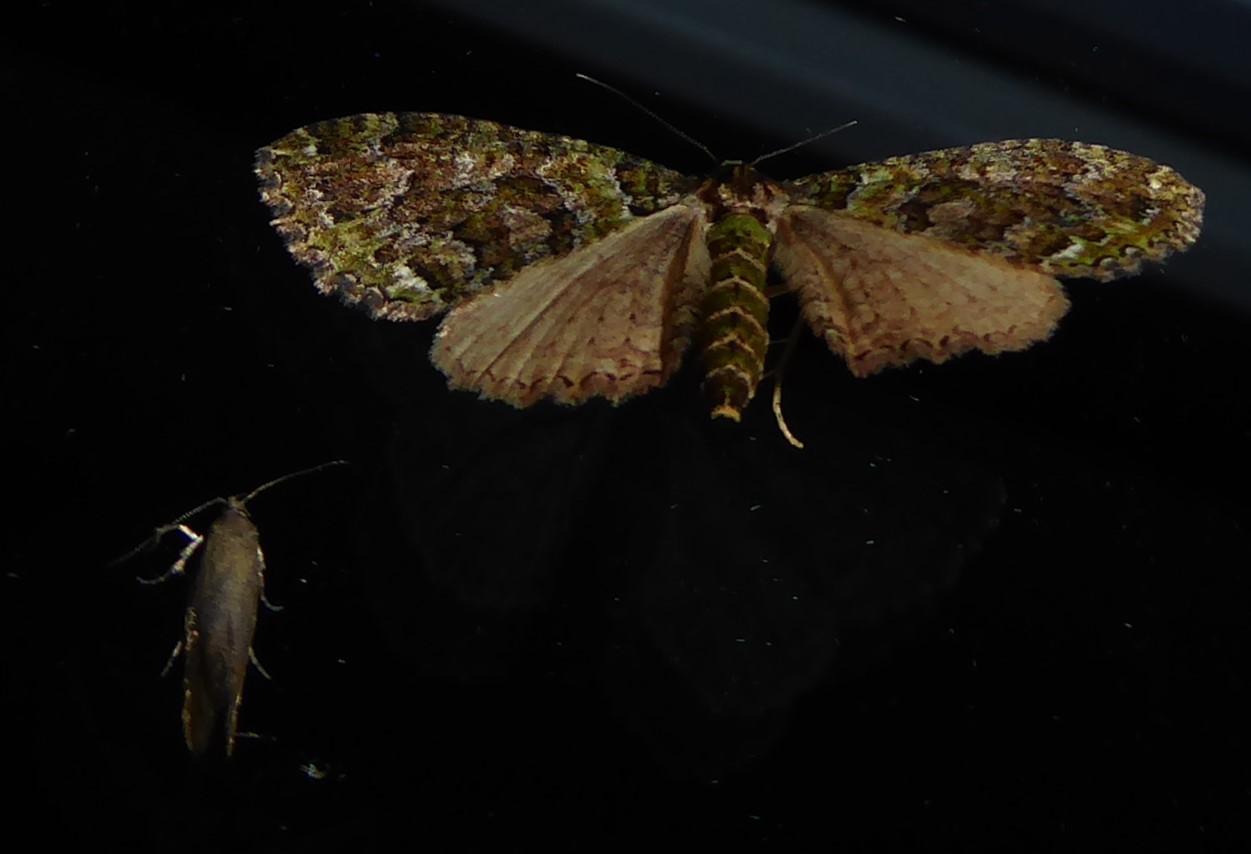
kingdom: Animalia
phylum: Arthropoda
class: Insecta
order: Lepidoptera
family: Geometridae
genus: Austrocidaria
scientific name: Austrocidaria similata
